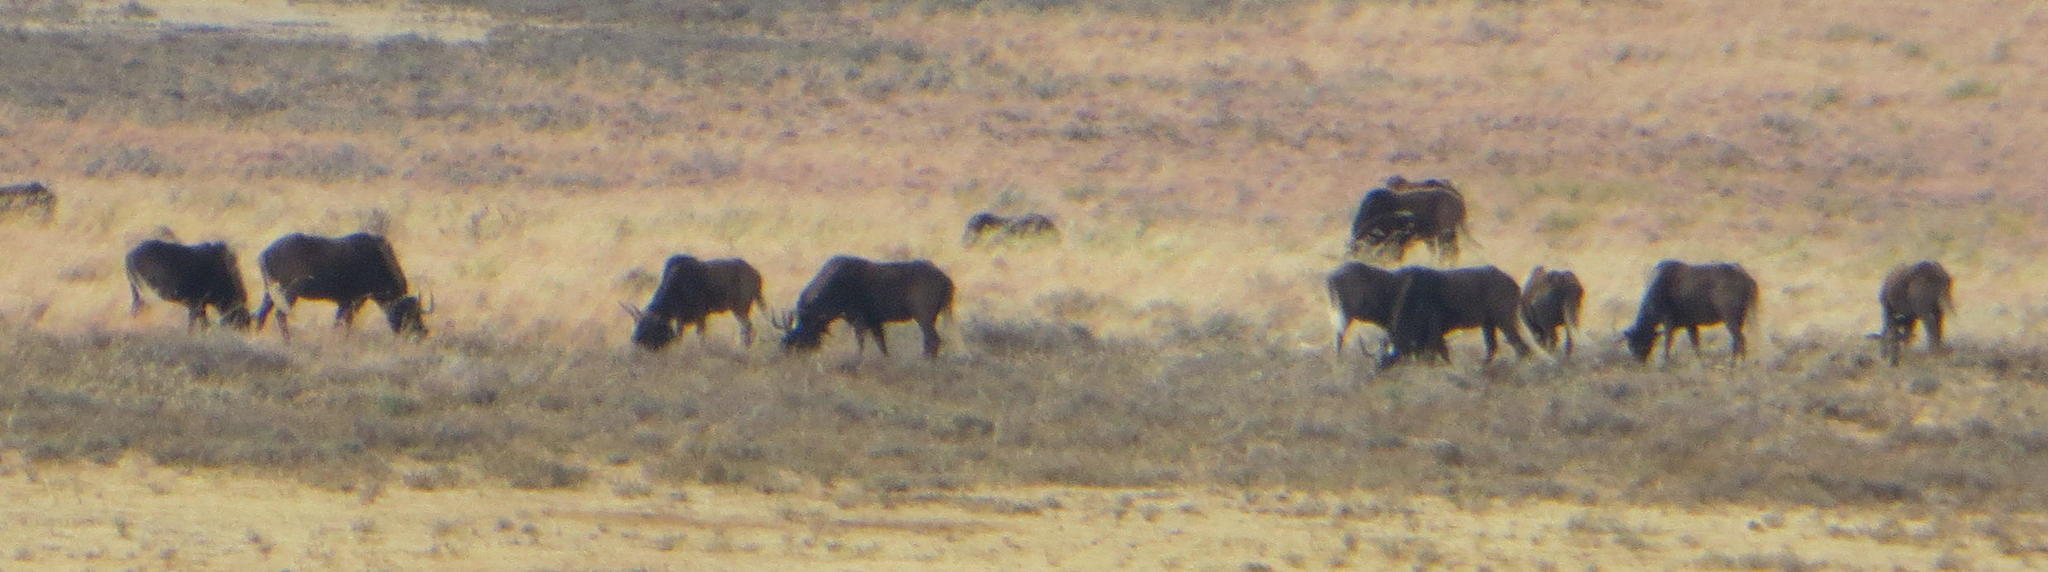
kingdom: Animalia
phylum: Chordata
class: Mammalia
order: Artiodactyla
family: Bovidae
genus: Connochaetes
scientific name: Connochaetes gnou
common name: Black wildebeest
